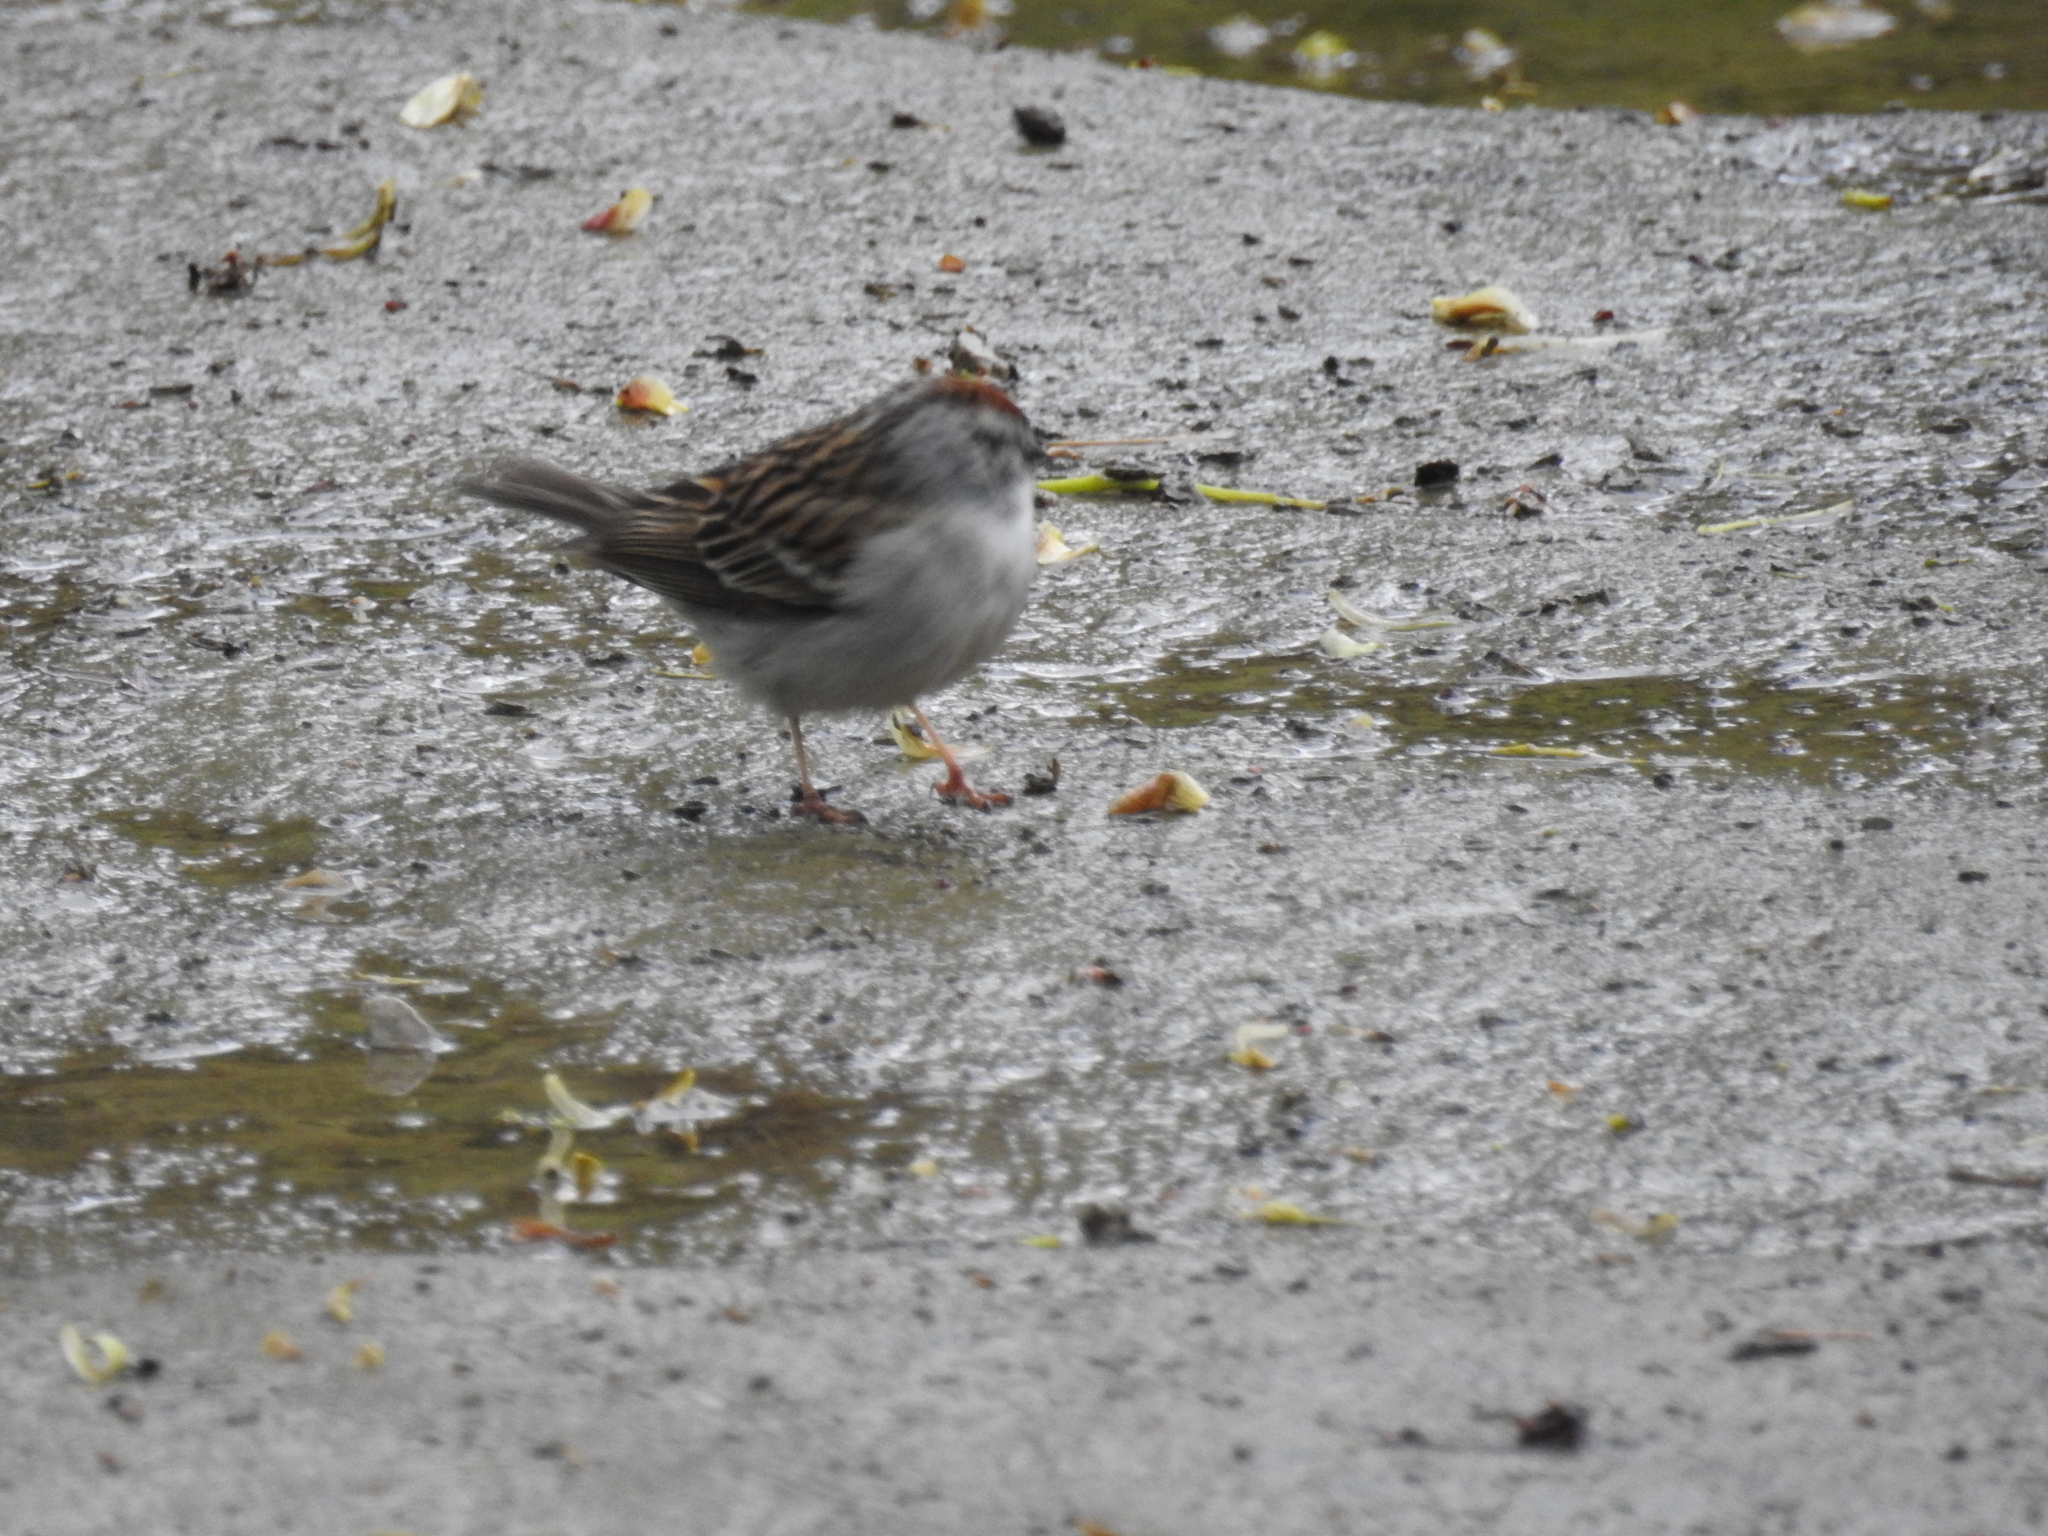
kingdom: Animalia
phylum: Chordata
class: Aves
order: Passeriformes
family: Passerellidae
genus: Spizella
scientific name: Spizella passerina
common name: Chipping sparrow
